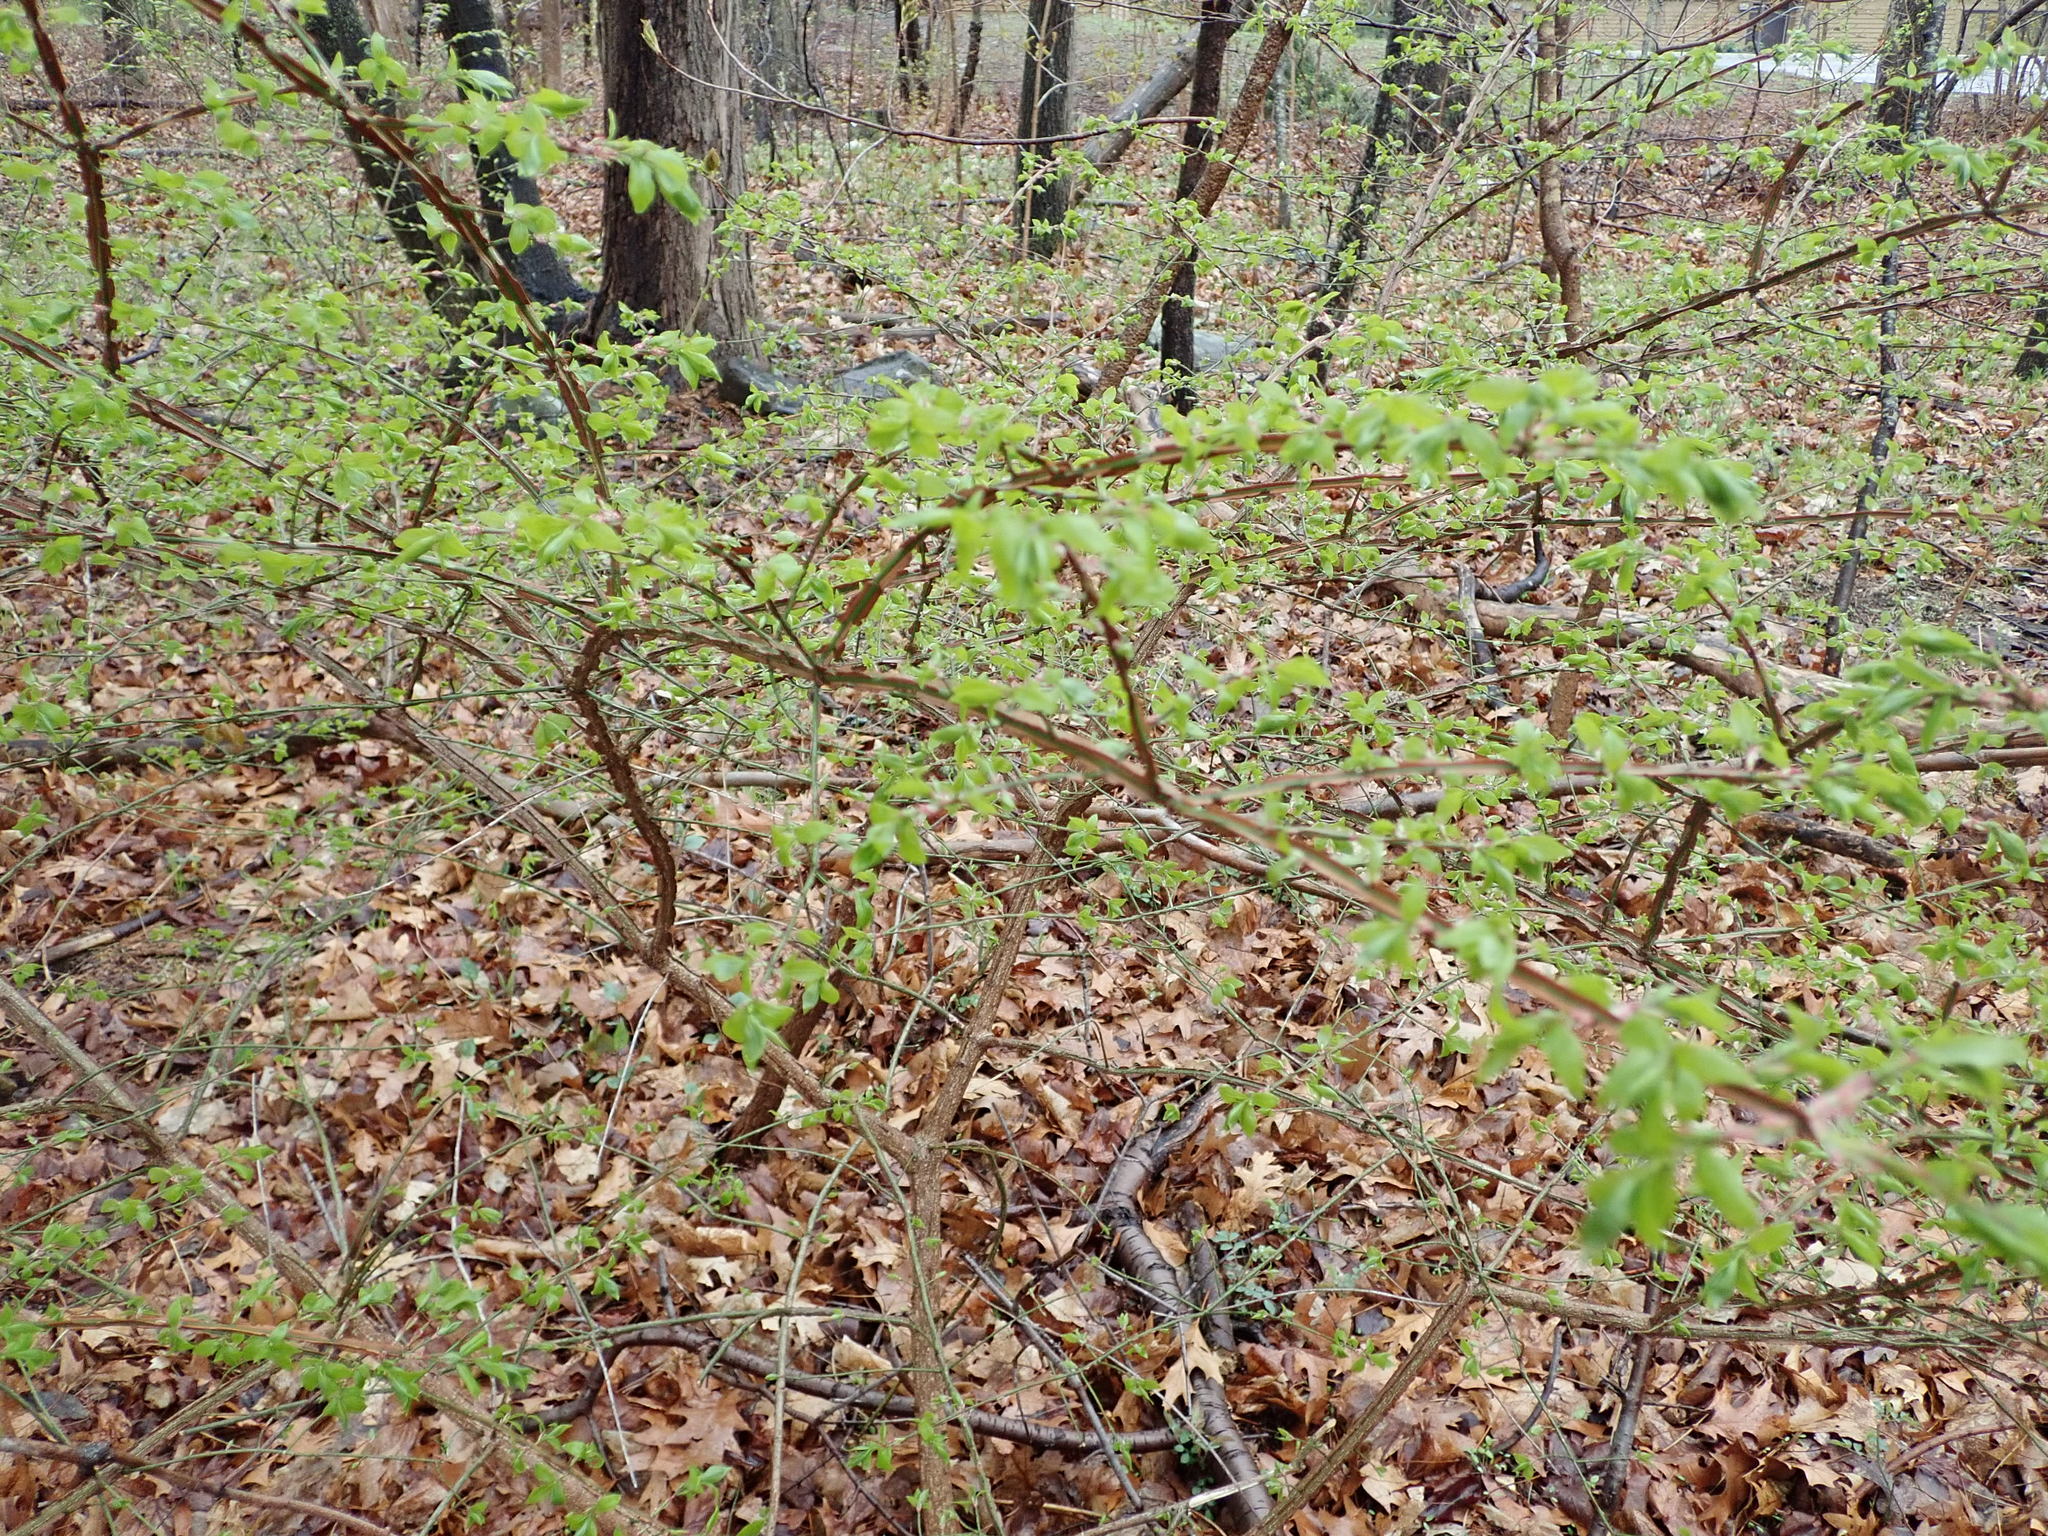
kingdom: Plantae
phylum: Tracheophyta
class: Magnoliopsida
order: Celastrales
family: Celastraceae
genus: Euonymus
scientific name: Euonymus alatus
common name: Winged euonymus
